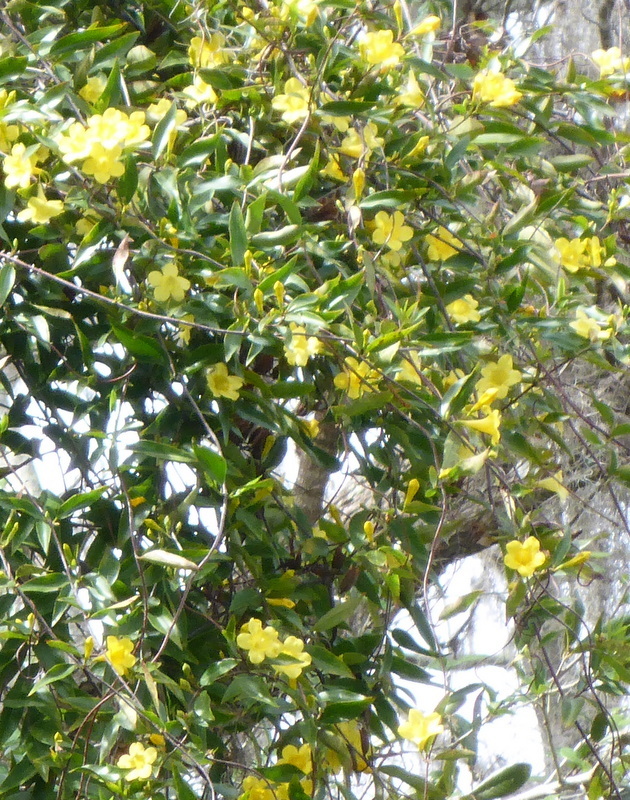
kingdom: Plantae
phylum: Tracheophyta
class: Magnoliopsida
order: Gentianales
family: Gelsemiaceae
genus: Gelsemium
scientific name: Gelsemium sempervirens
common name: Carolina-jasmine
